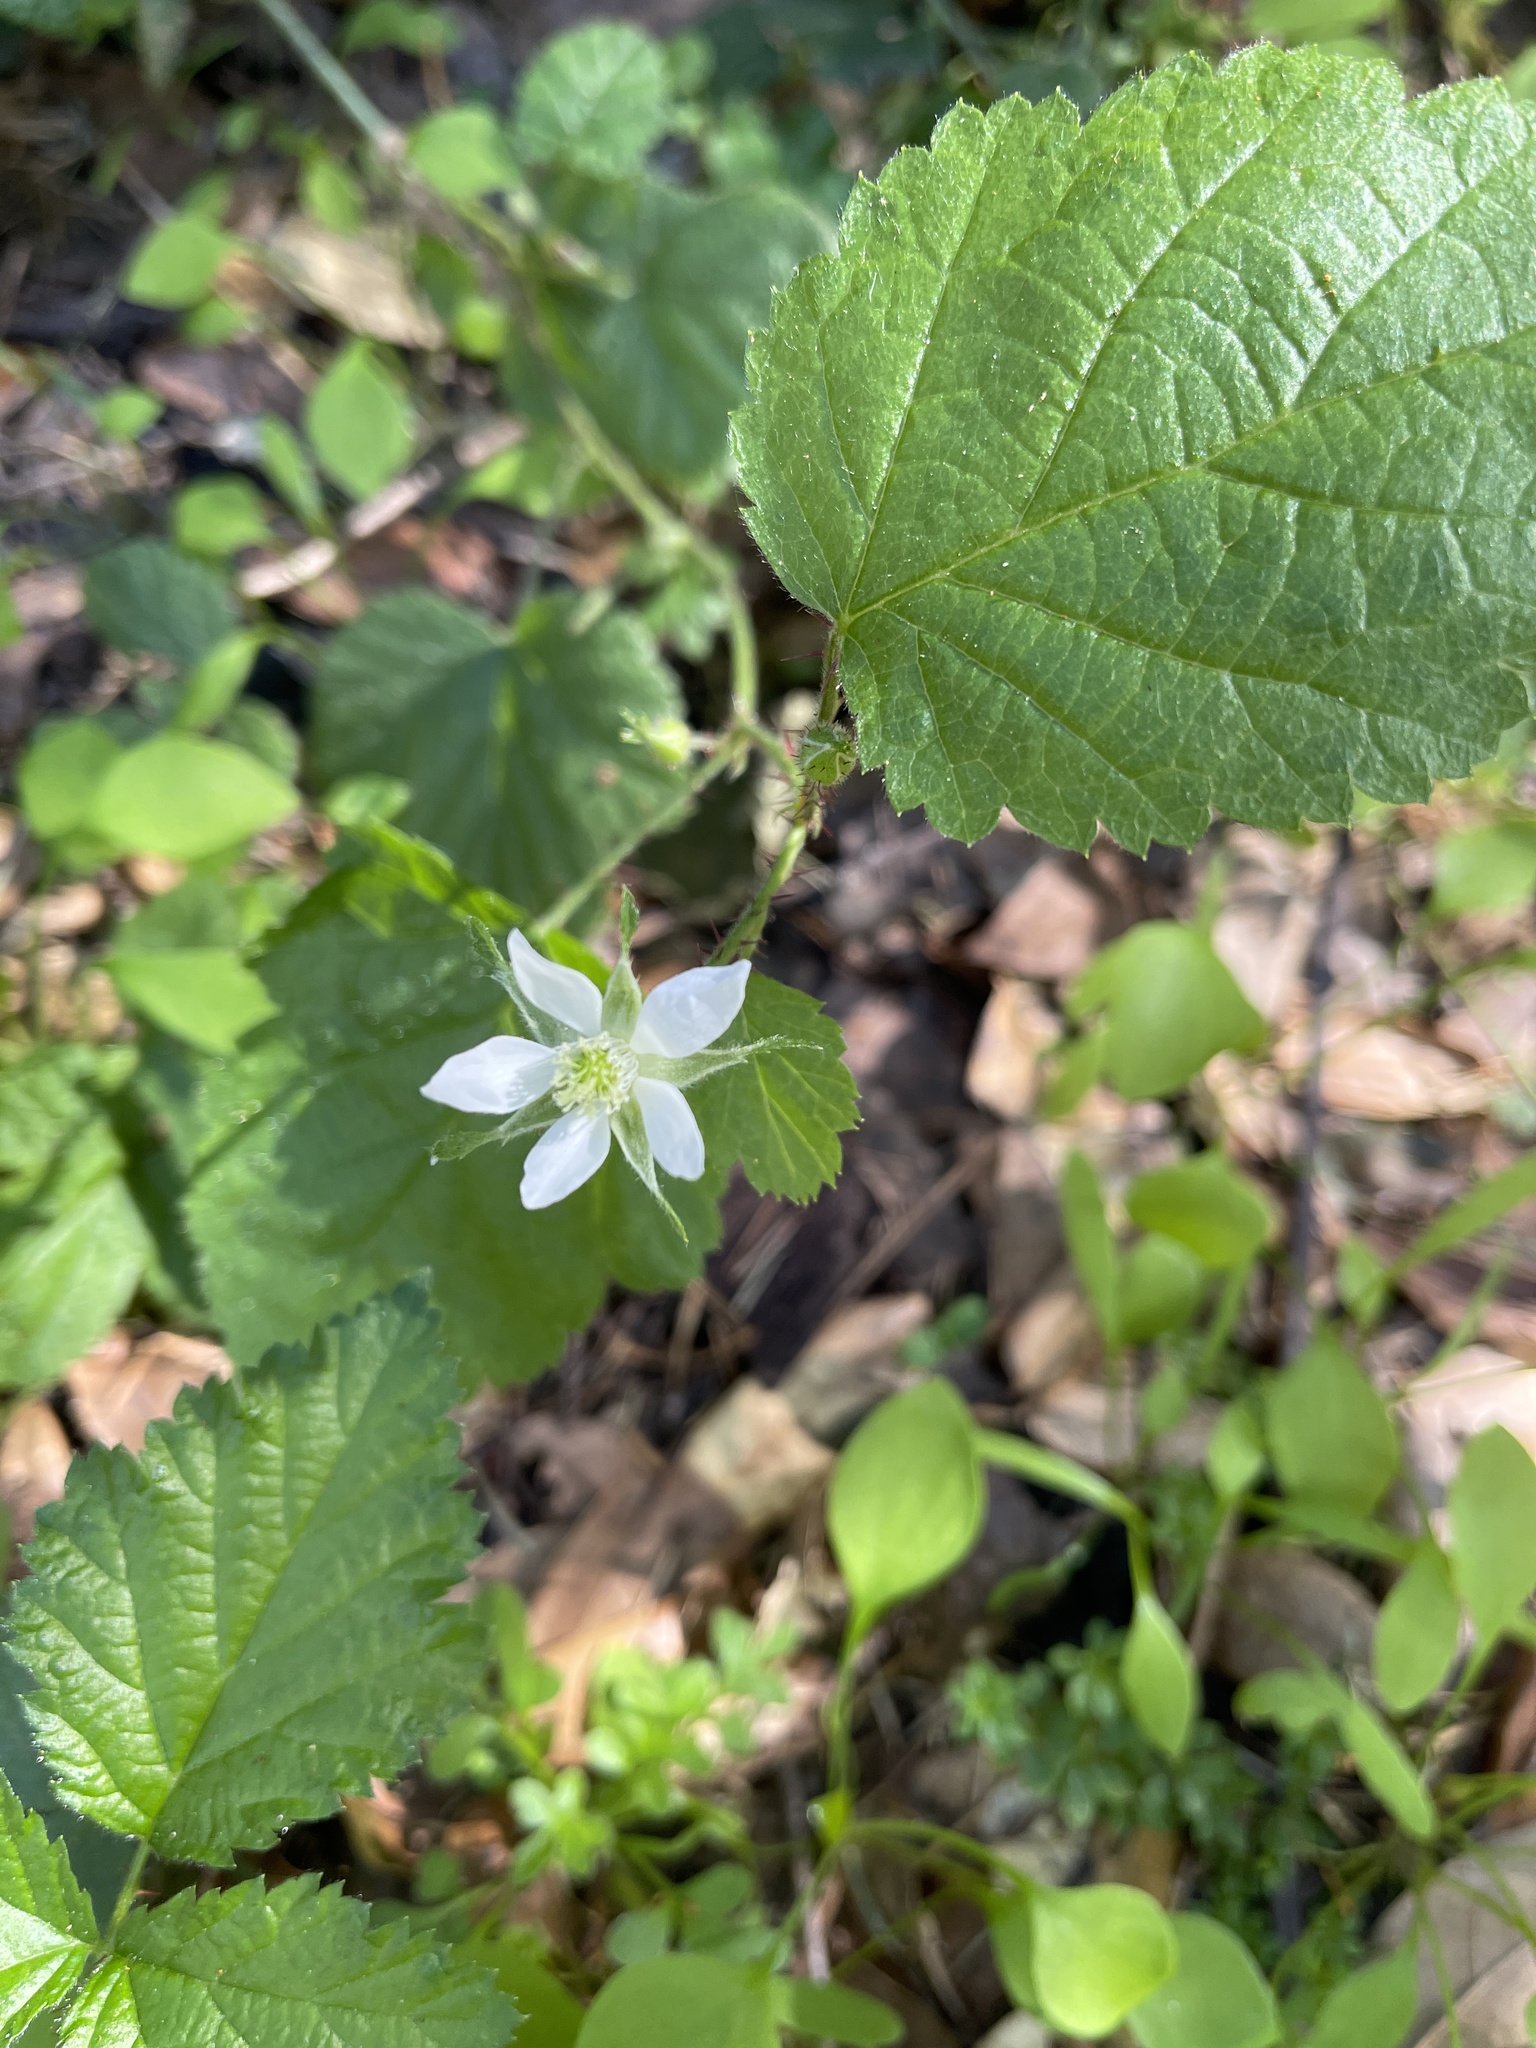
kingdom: Plantae
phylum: Tracheophyta
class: Magnoliopsida
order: Rosales
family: Rosaceae
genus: Rubus
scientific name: Rubus ursinus
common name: Pacific blackberry
